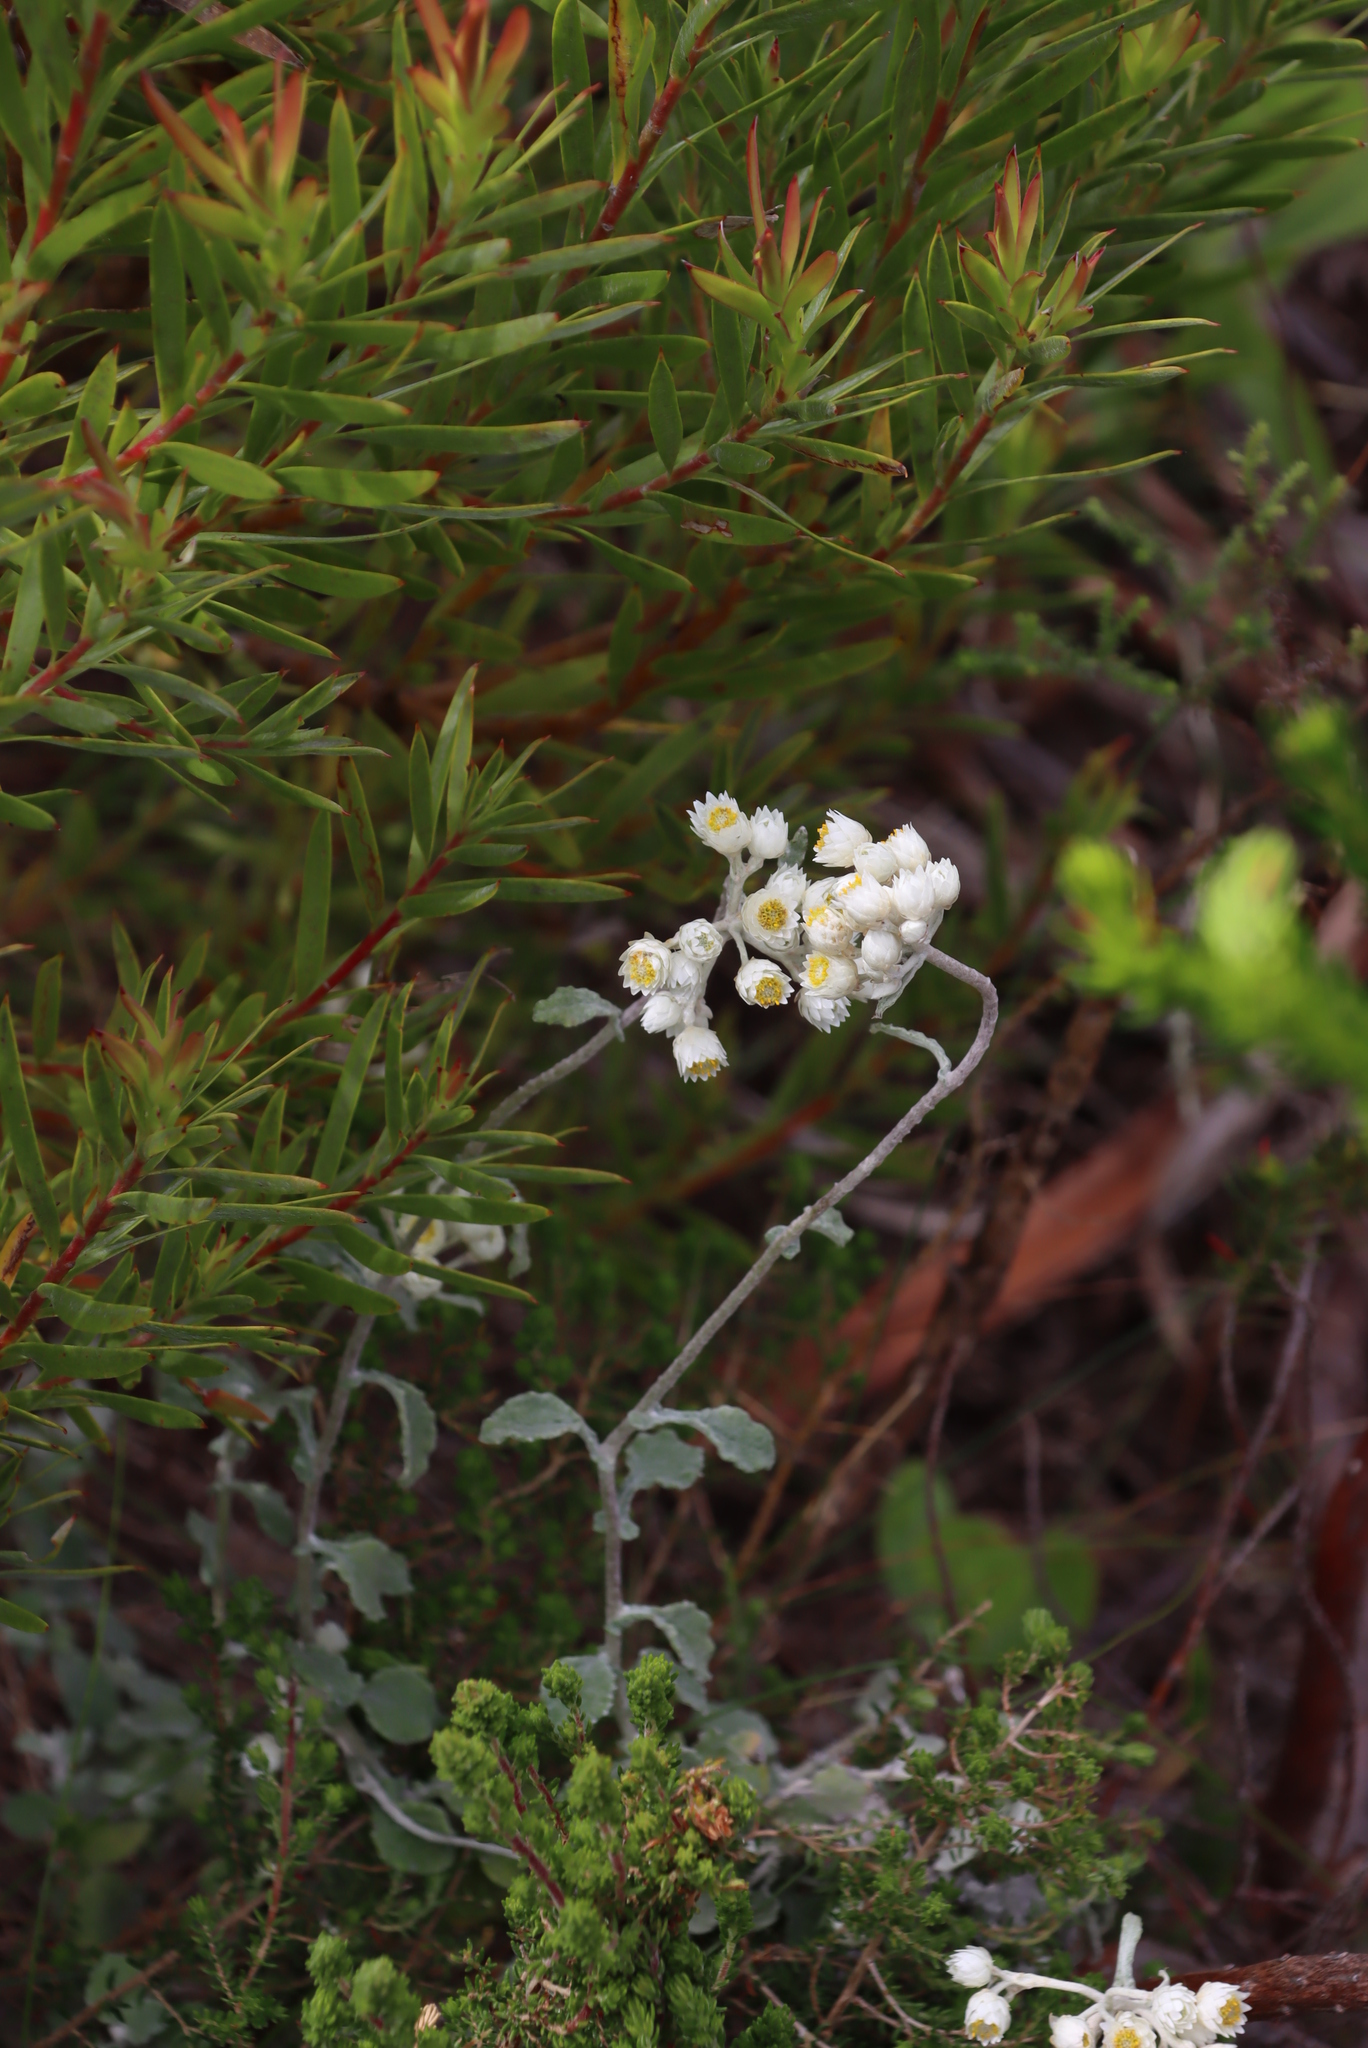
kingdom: Plantae
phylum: Tracheophyta
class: Magnoliopsida
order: Asterales
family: Asteraceae
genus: Helichrysum
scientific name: Helichrysum pandurifolium
